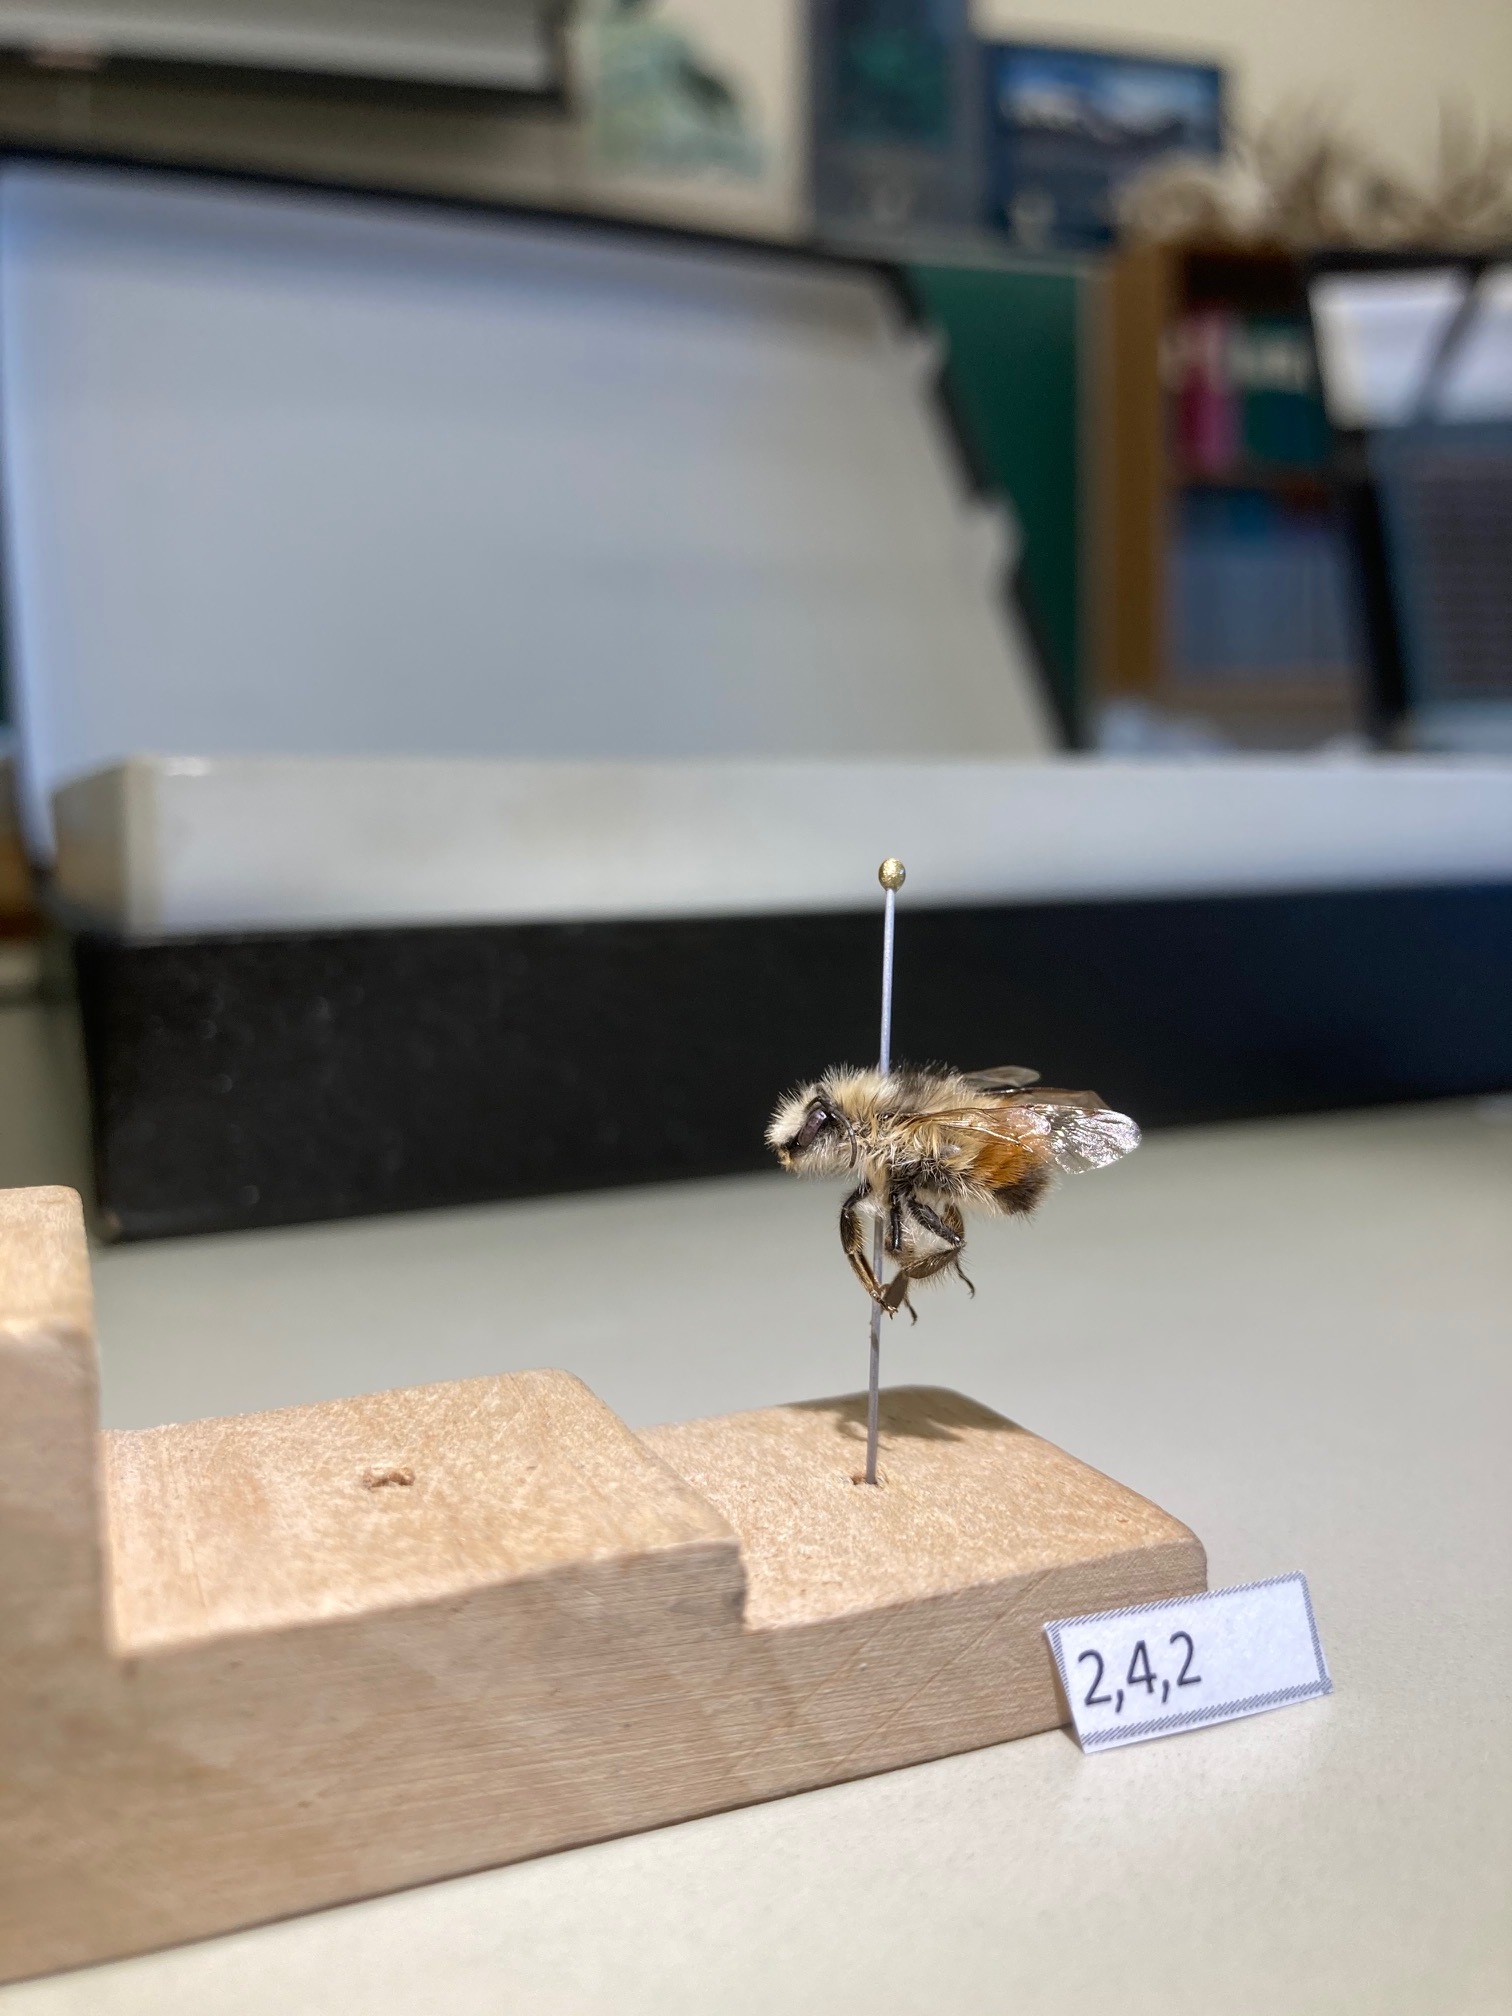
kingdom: Animalia
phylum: Arthropoda
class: Insecta
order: Hymenoptera
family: Apidae
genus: Bombus
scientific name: Bombus flavifrons
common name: Yellow head bumble bee
